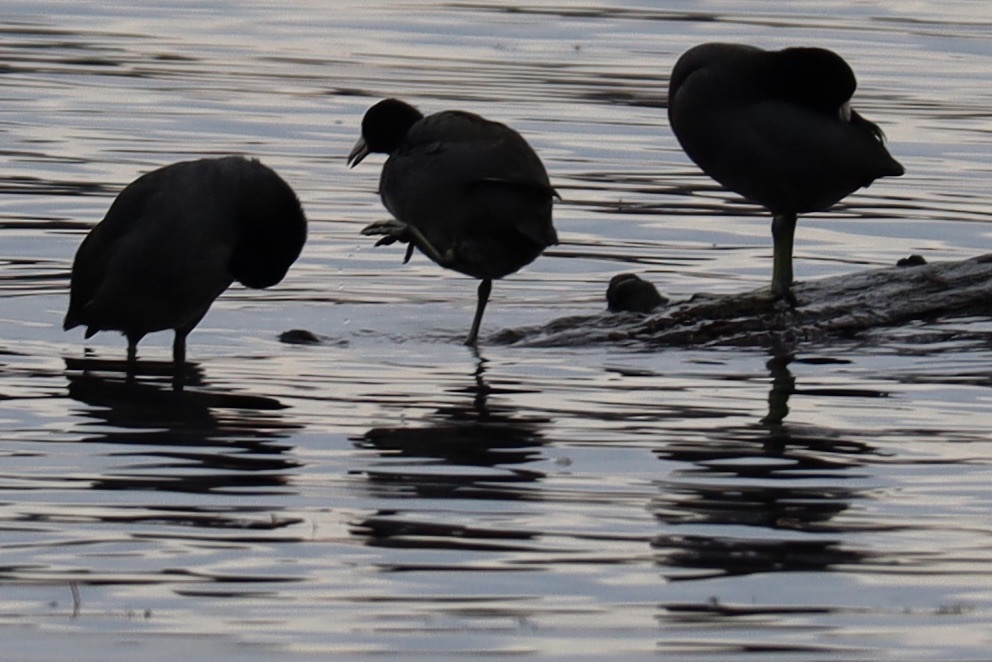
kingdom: Animalia
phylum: Chordata
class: Aves
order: Gruiformes
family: Rallidae
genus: Fulica
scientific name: Fulica americana
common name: American coot
